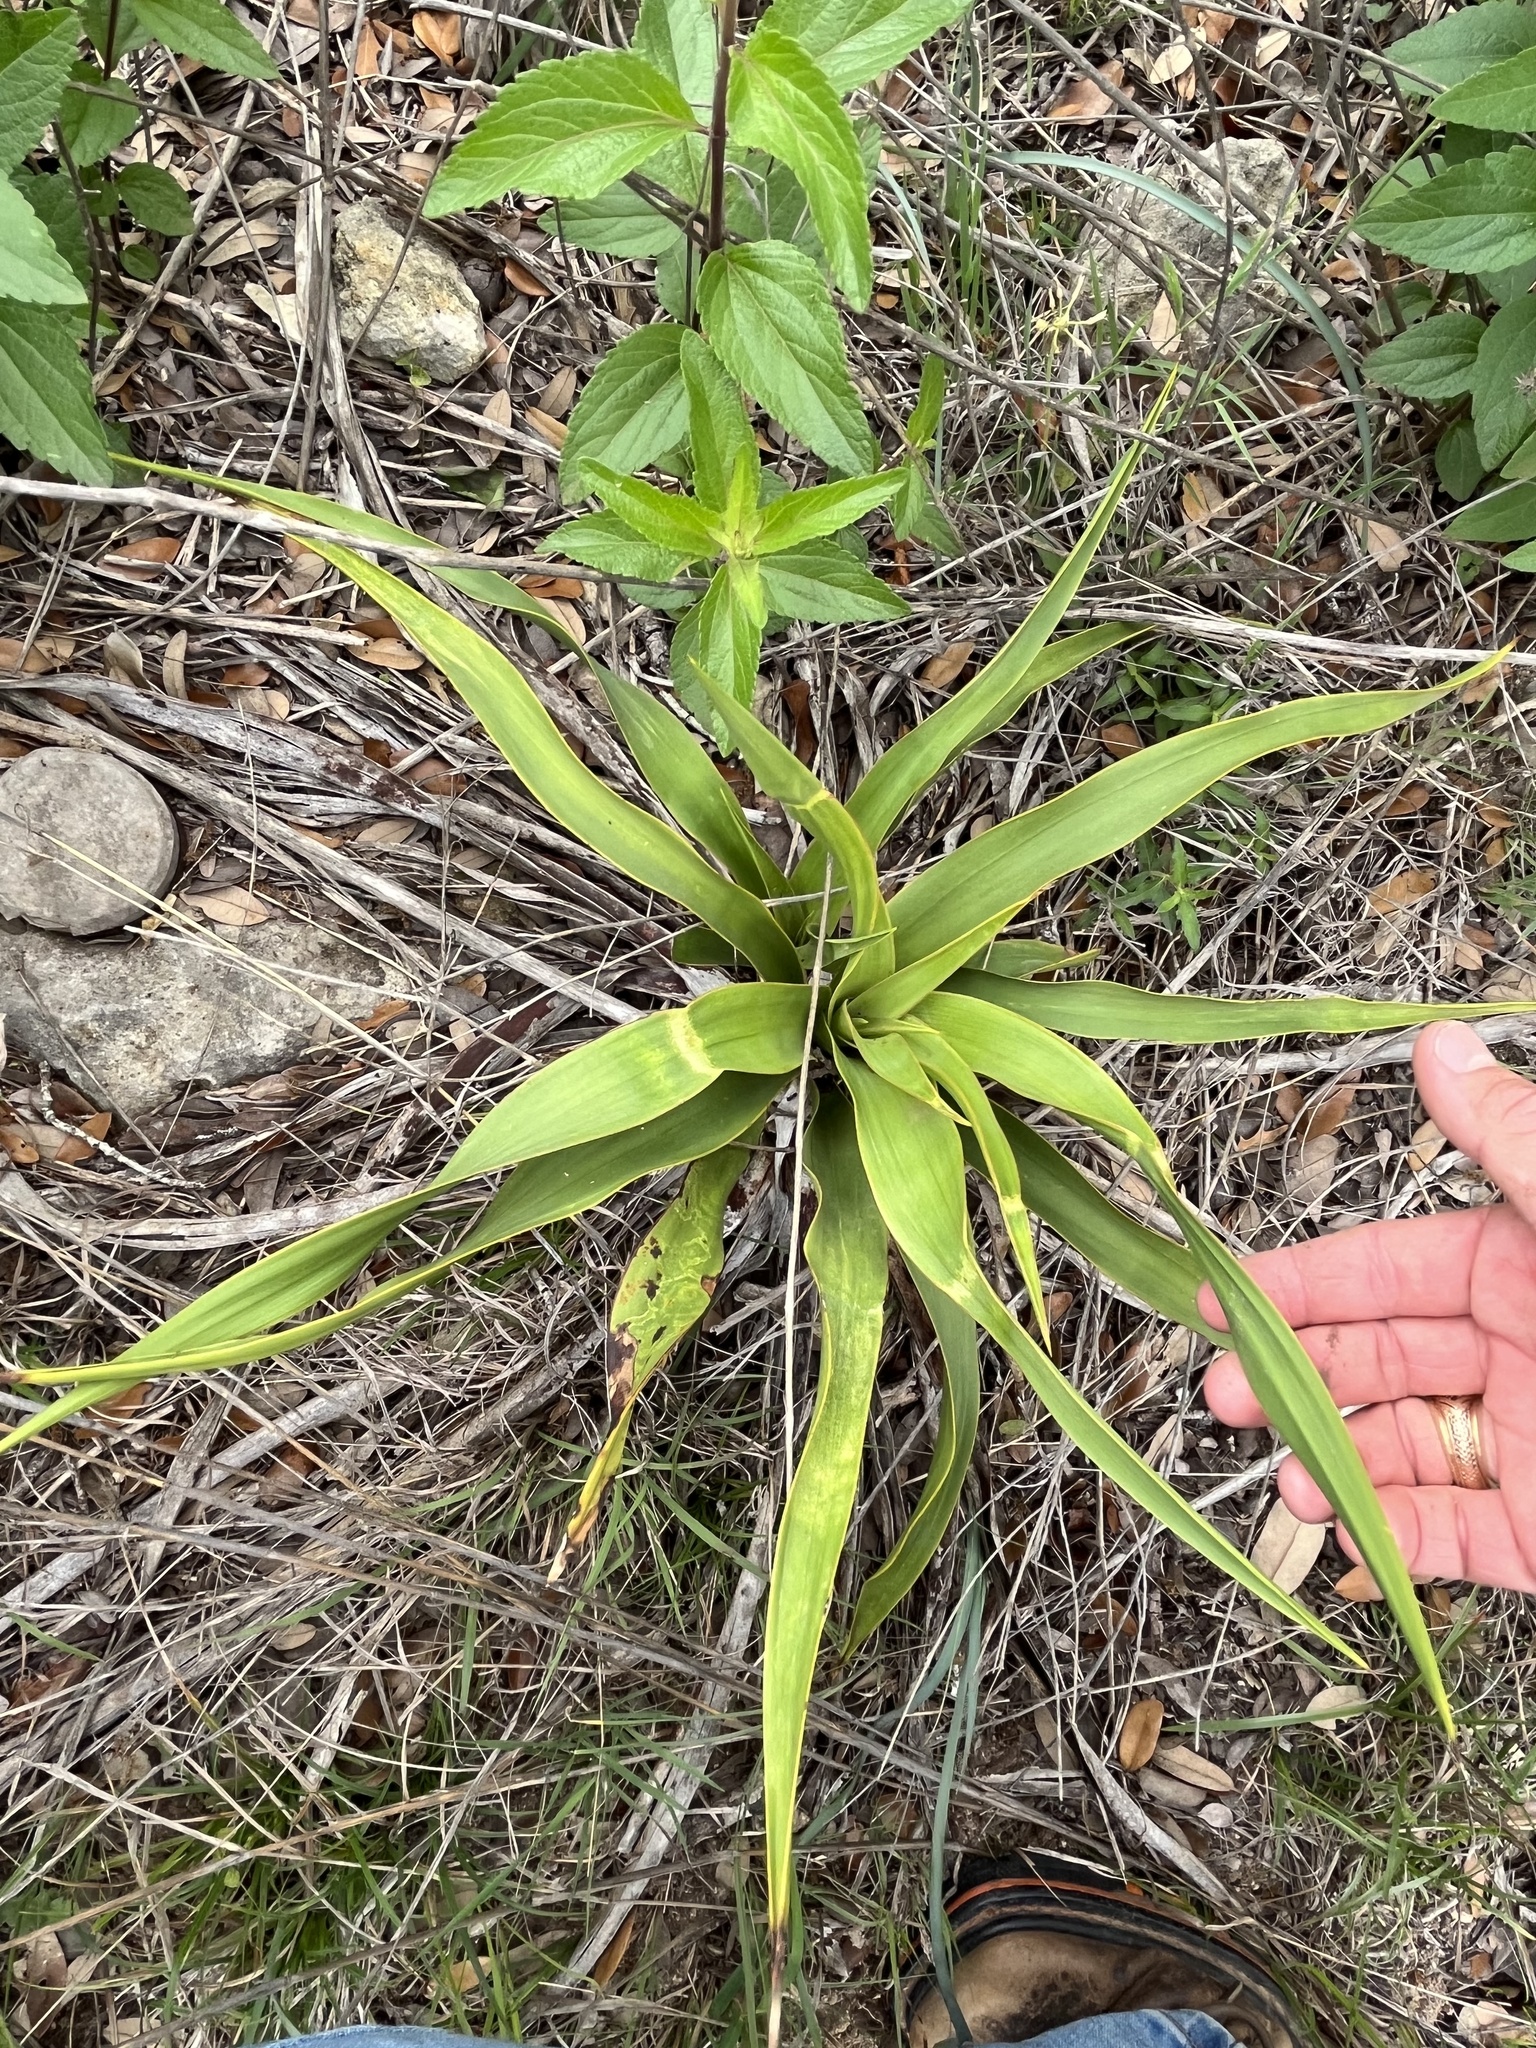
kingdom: Plantae
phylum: Tracheophyta
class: Liliopsida
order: Asparagales
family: Asparagaceae
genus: Yucca
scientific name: Yucca rupicola
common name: Twisted-leaf spanish-dagger
